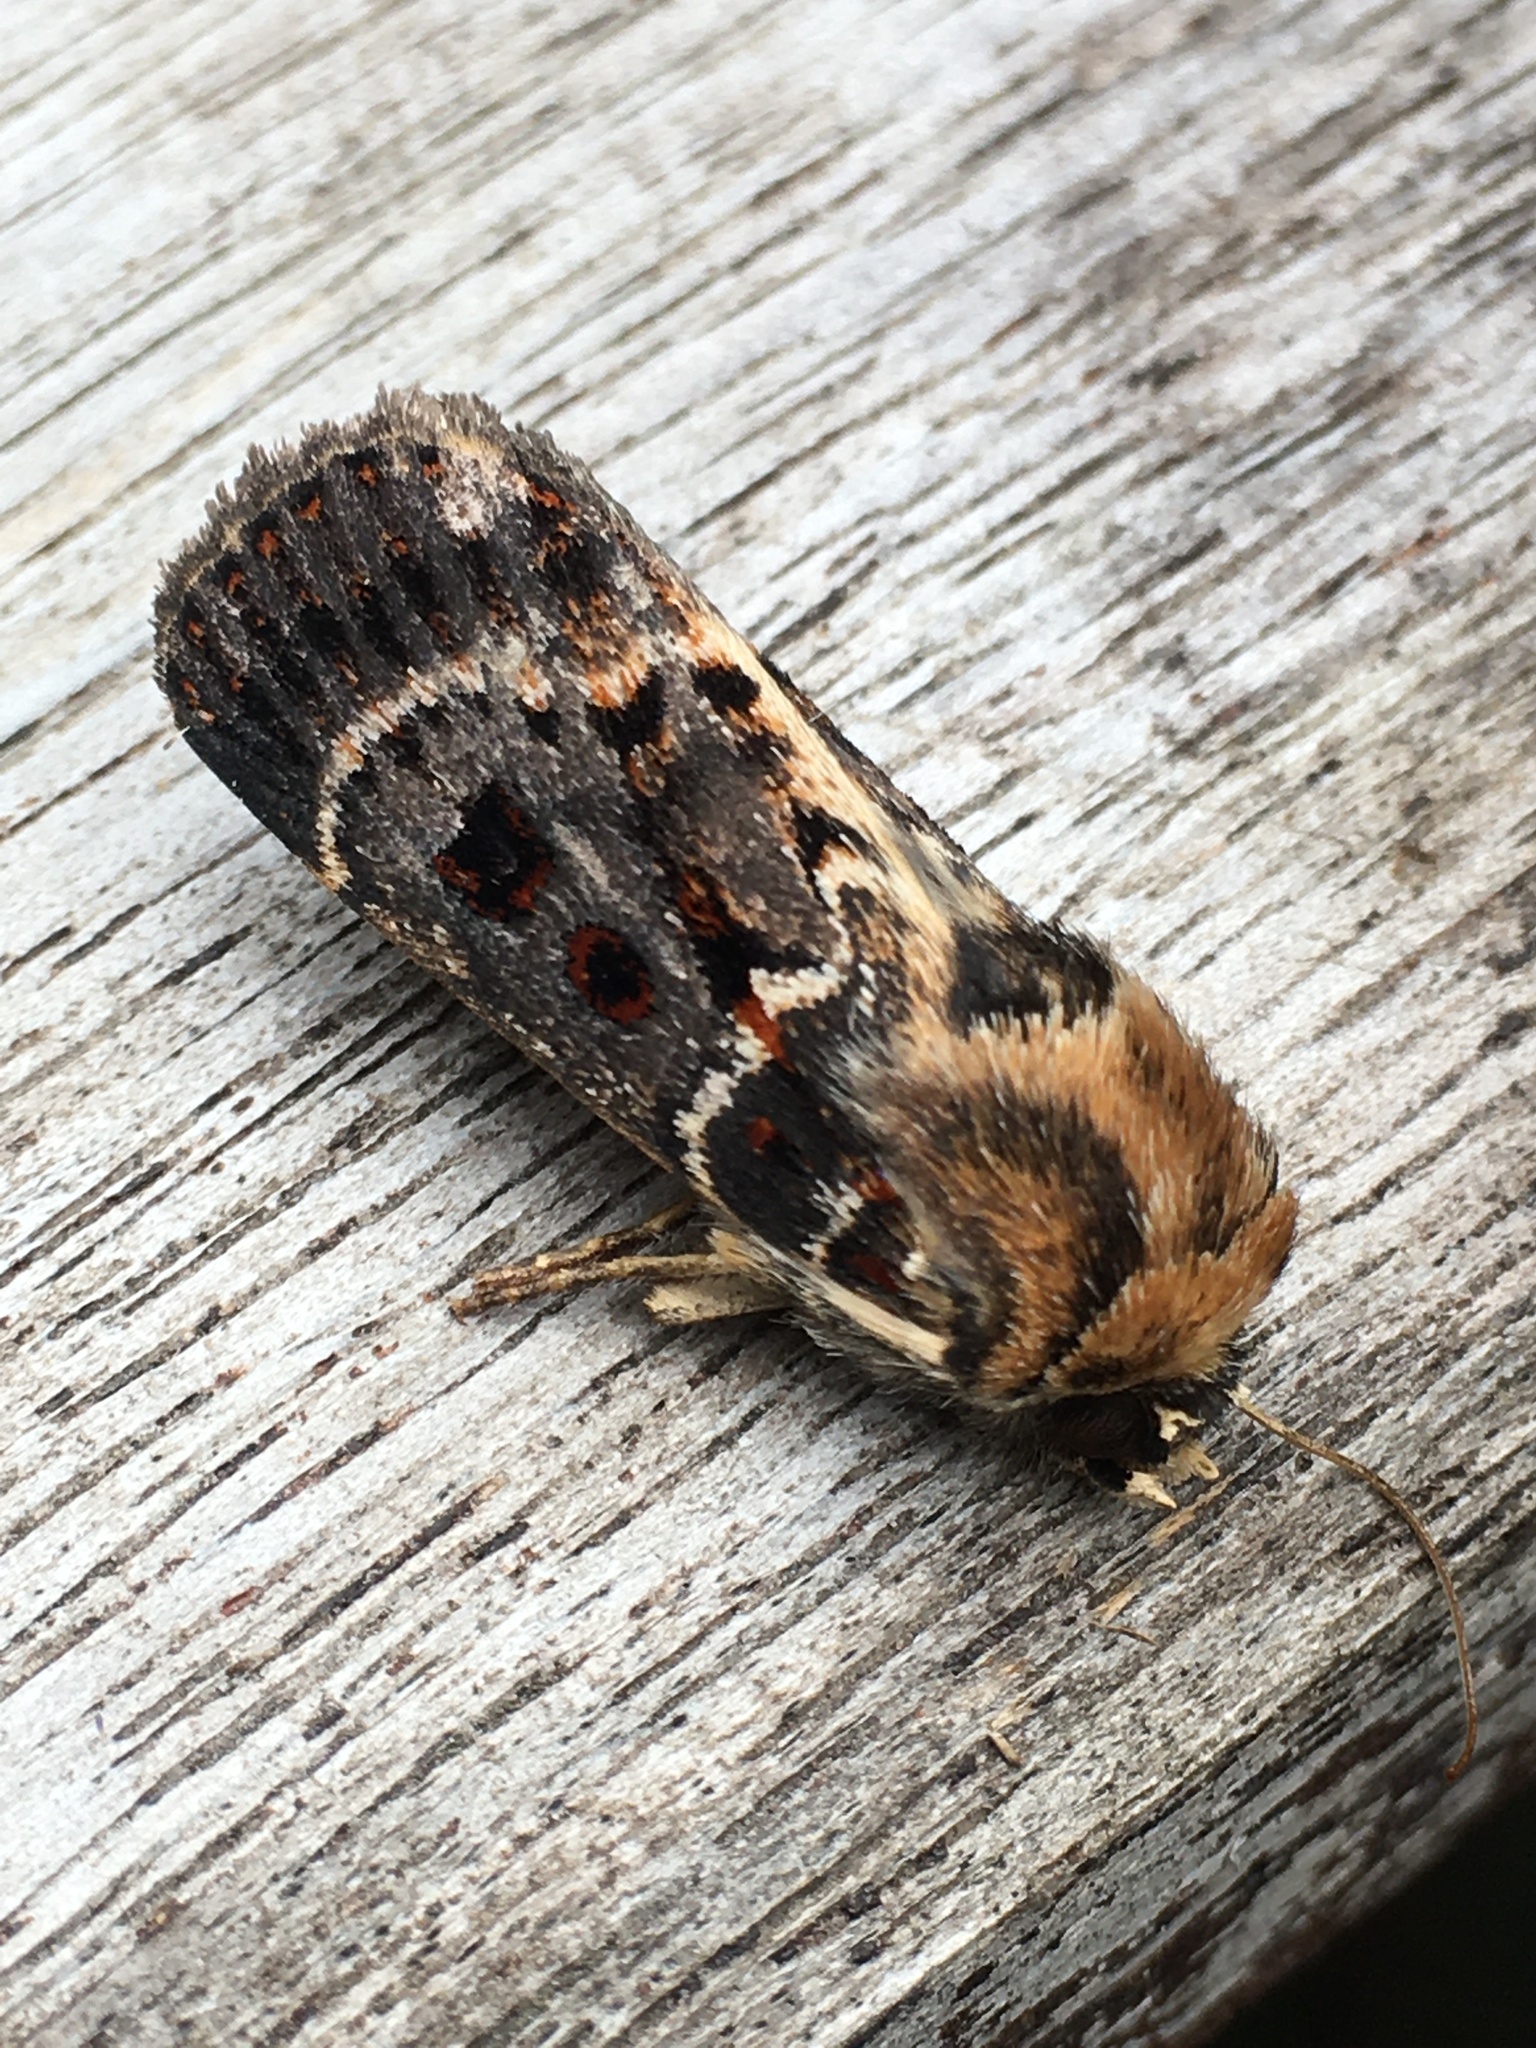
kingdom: Animalia
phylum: Arthropoda
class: Insecta
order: Lepidoptera
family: Noctuidae
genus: Proteuxoa
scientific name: Proteuxoa sanguinipuncta
